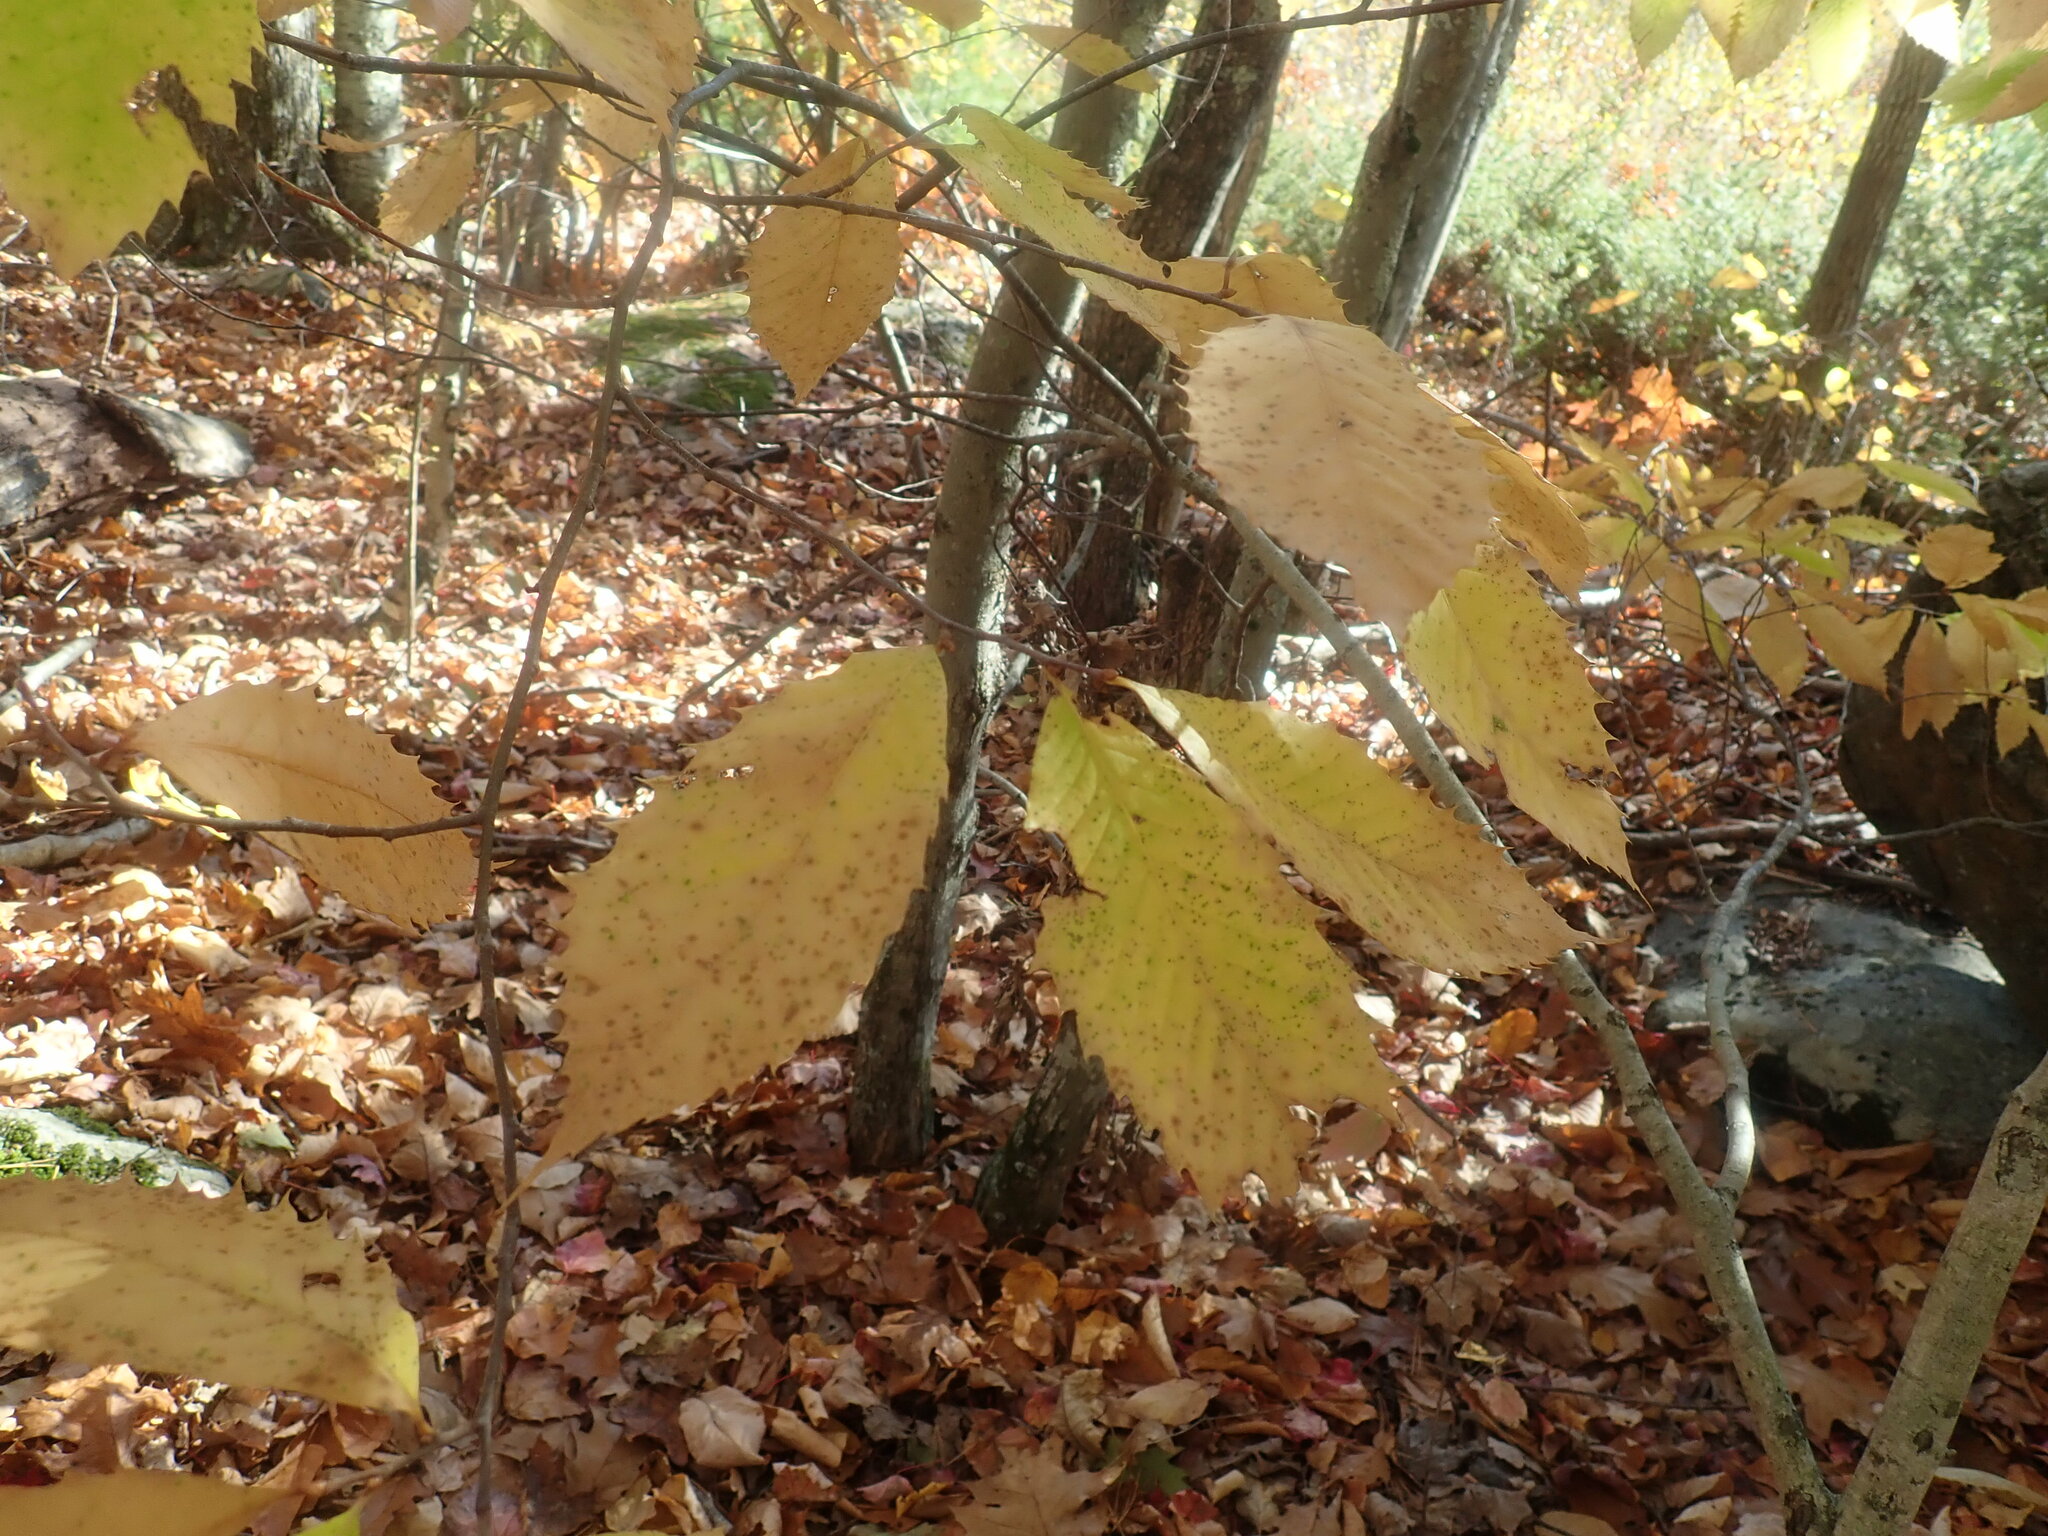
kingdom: Plantae
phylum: Tracheophyta
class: Magnoliopsida
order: Fagales
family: Fagaceae
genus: Castanea
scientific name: Castanea dentata
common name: American chestnut
